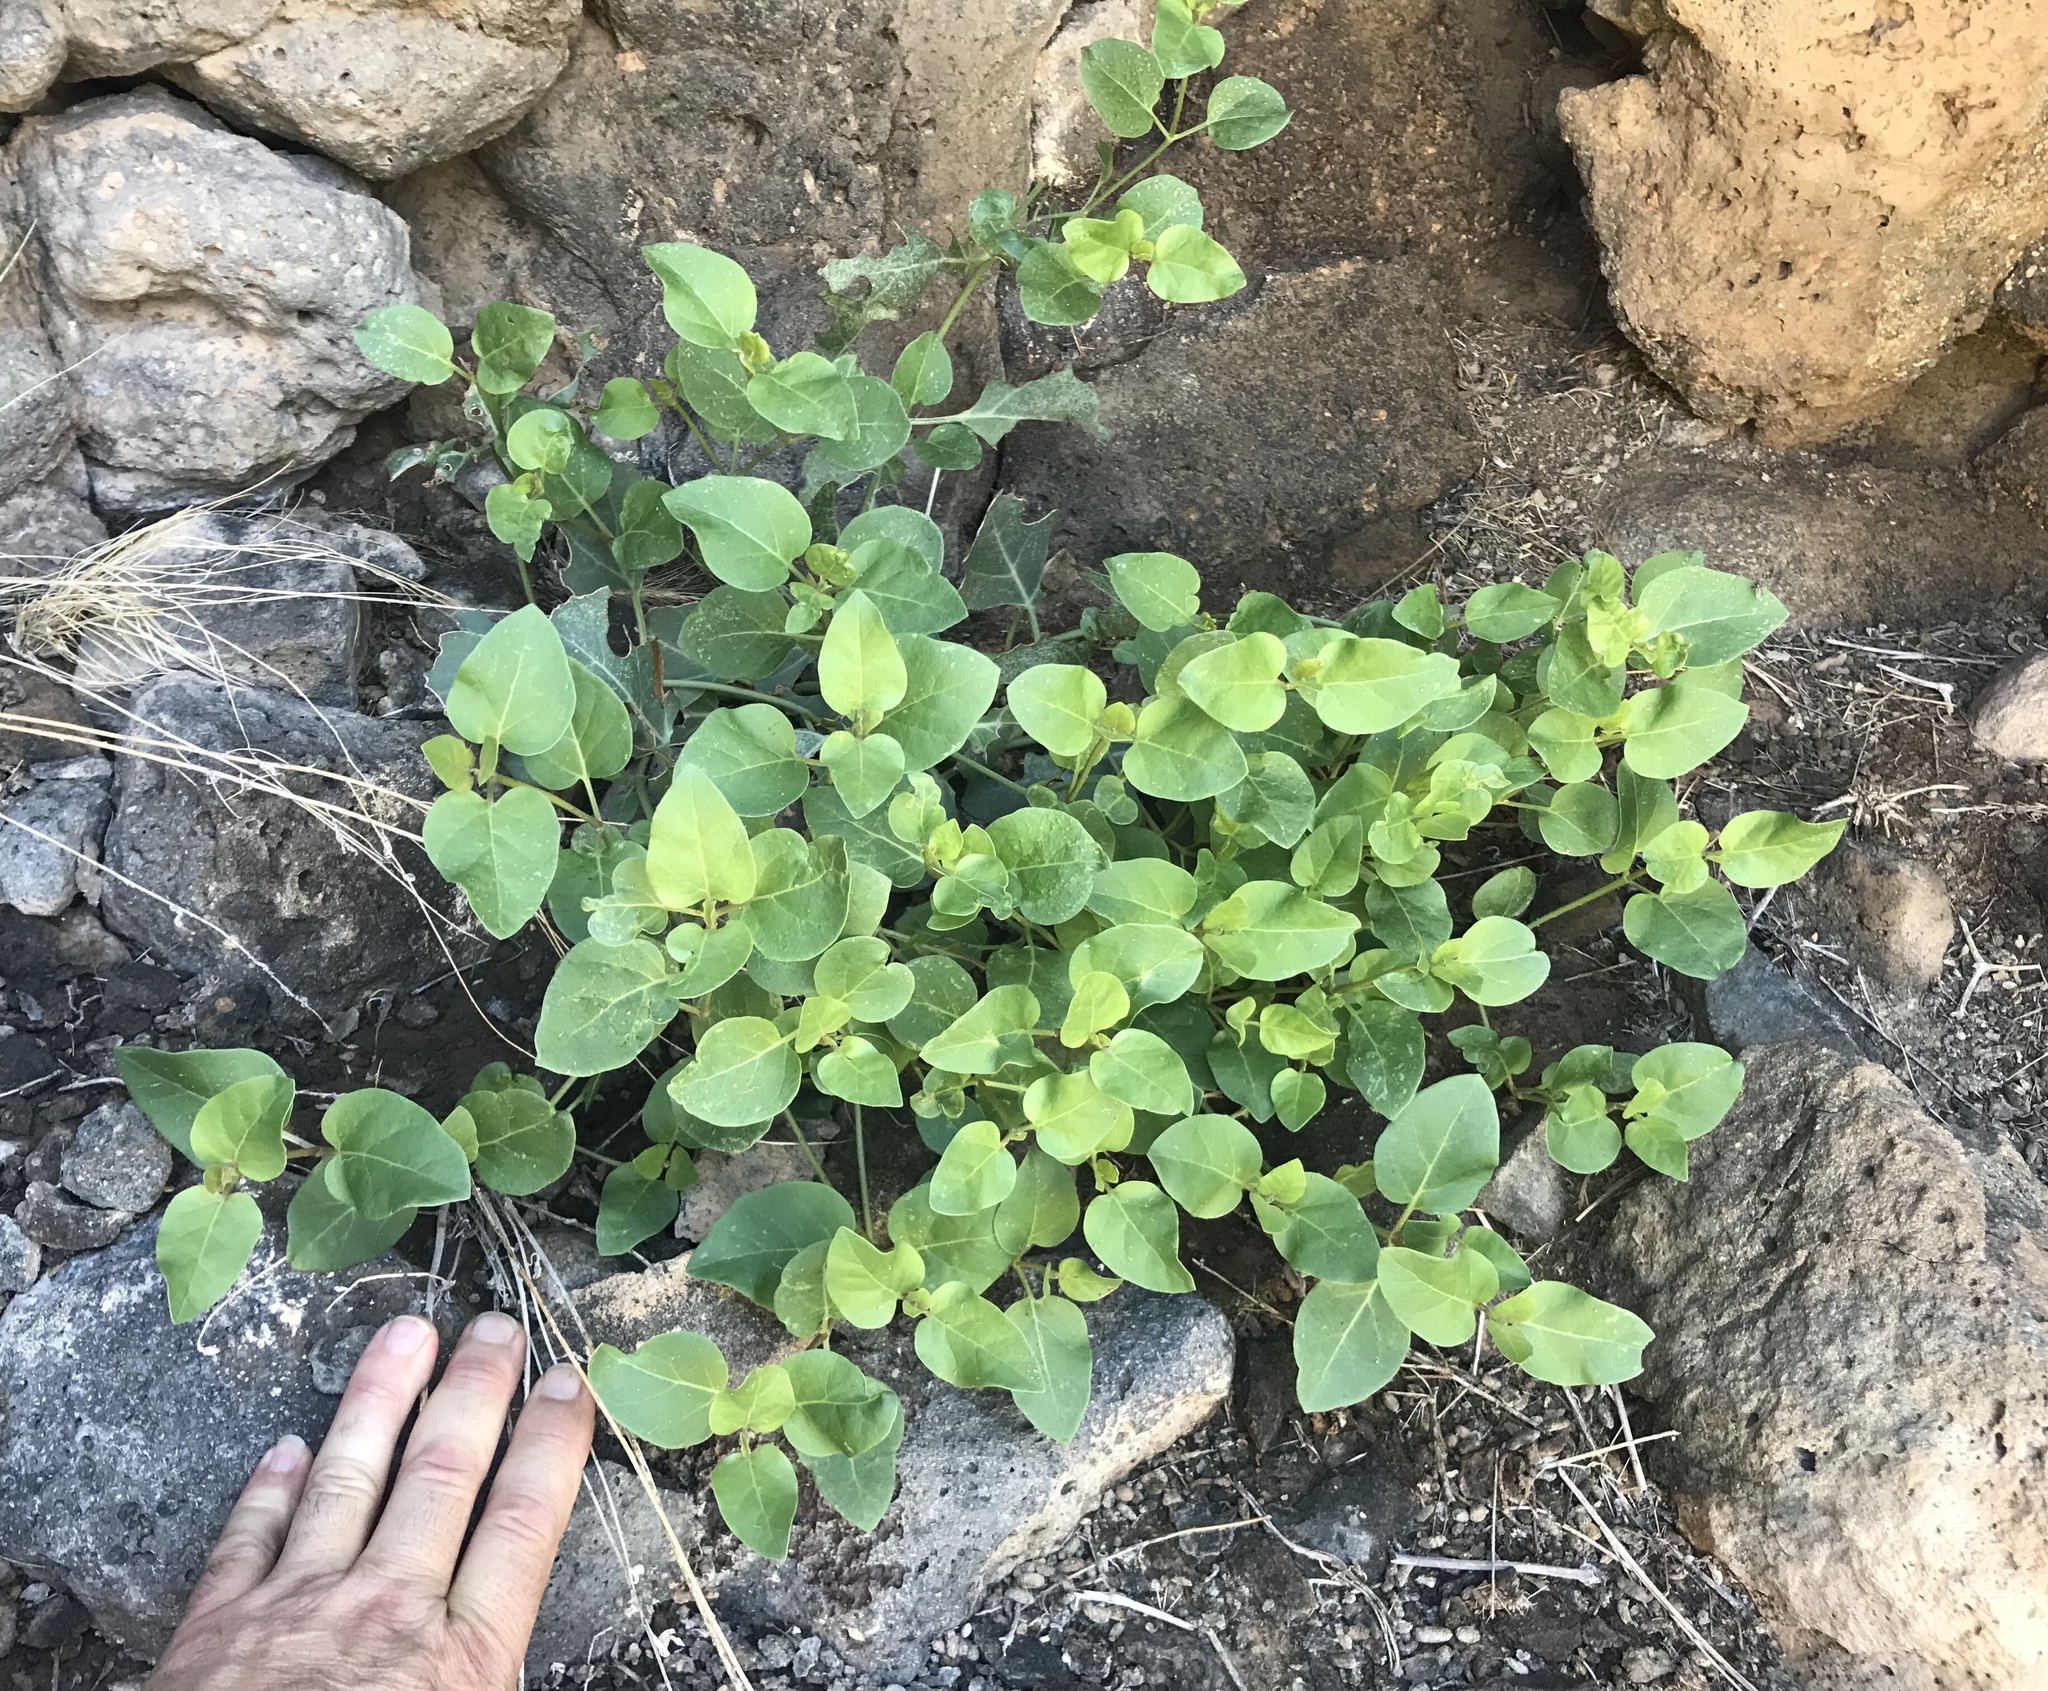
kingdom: Plantae
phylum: Tracheophyta
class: Magnoliopsida
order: Caryophyllales
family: Nyctaginaceae
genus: Mirabilis
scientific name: Mirabilis multiflora
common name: Froebel's four-o'clock
